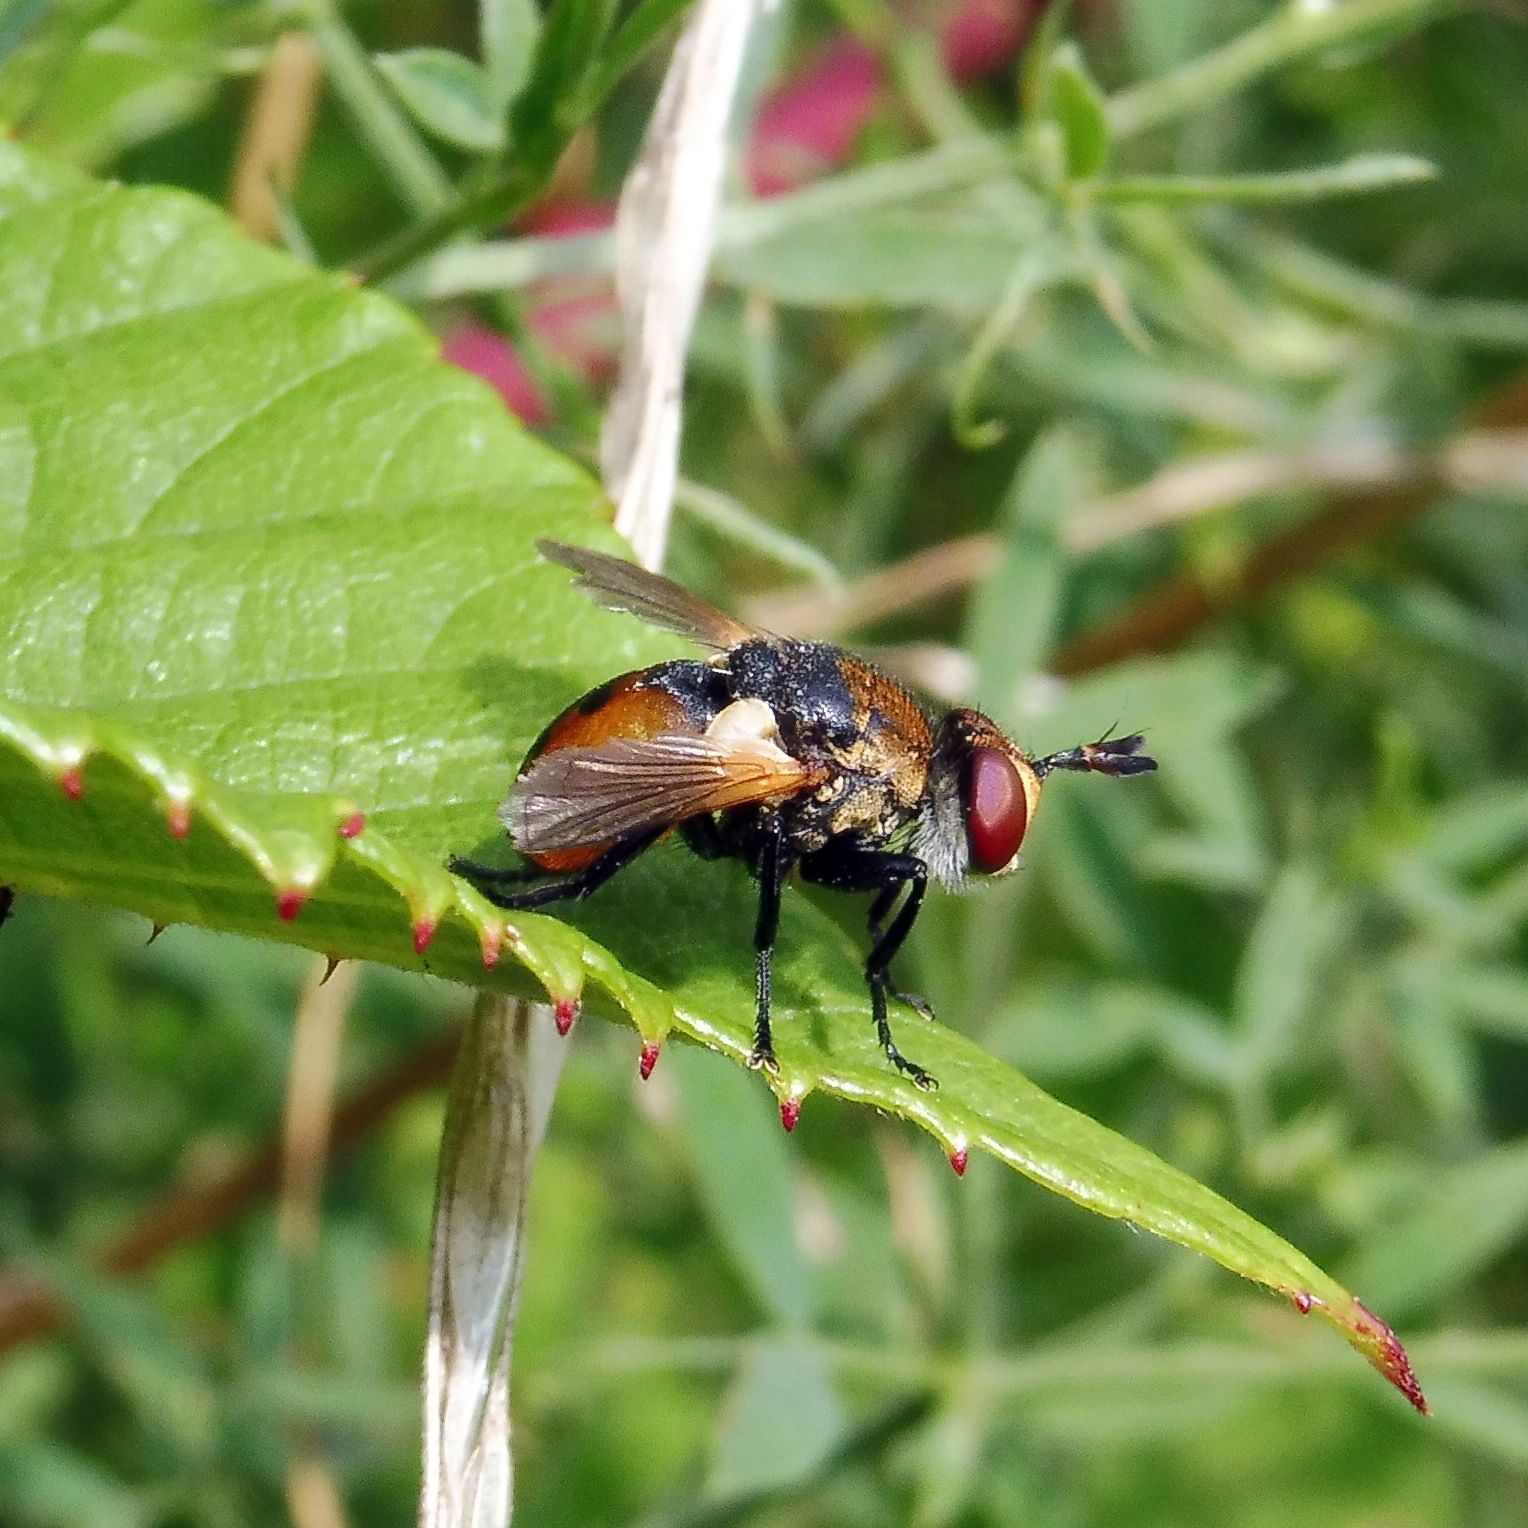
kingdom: Animalia
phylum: Arthropoda
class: Insecta
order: Diptera
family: Tachinidae
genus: Gymnosoma
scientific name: Gymnosoma rotundatum
